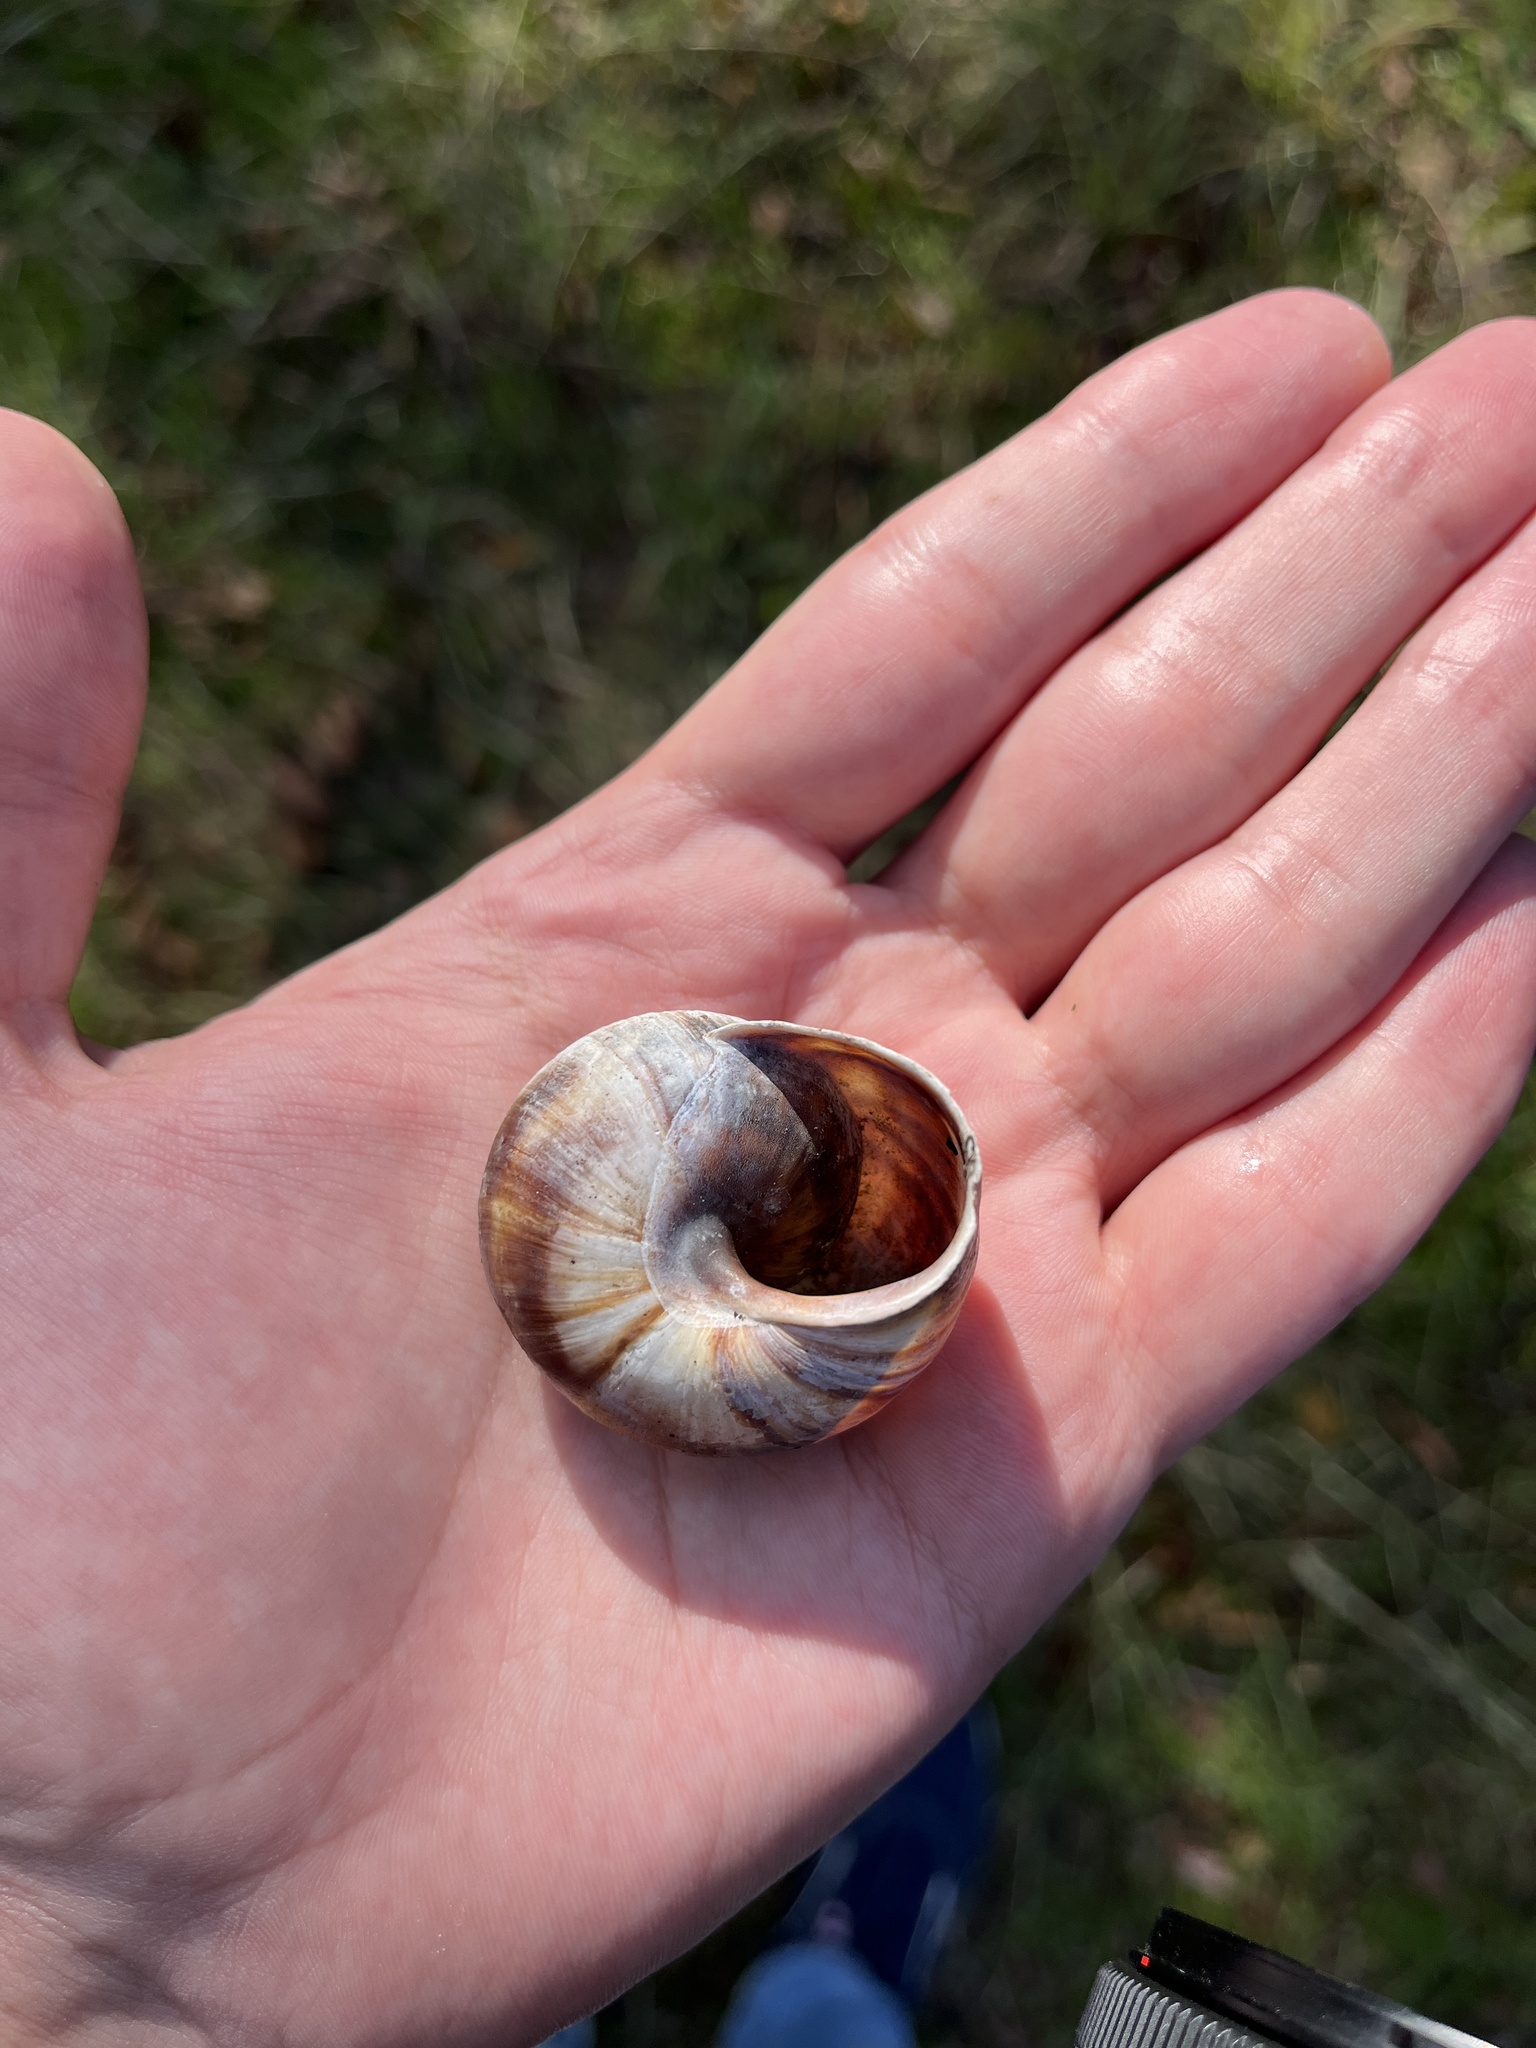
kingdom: Animalia
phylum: Mollusca
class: Gastropoda
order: Stylommatophora
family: Helicidae
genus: Helix
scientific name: Helix lucorum
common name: Turkish snail
